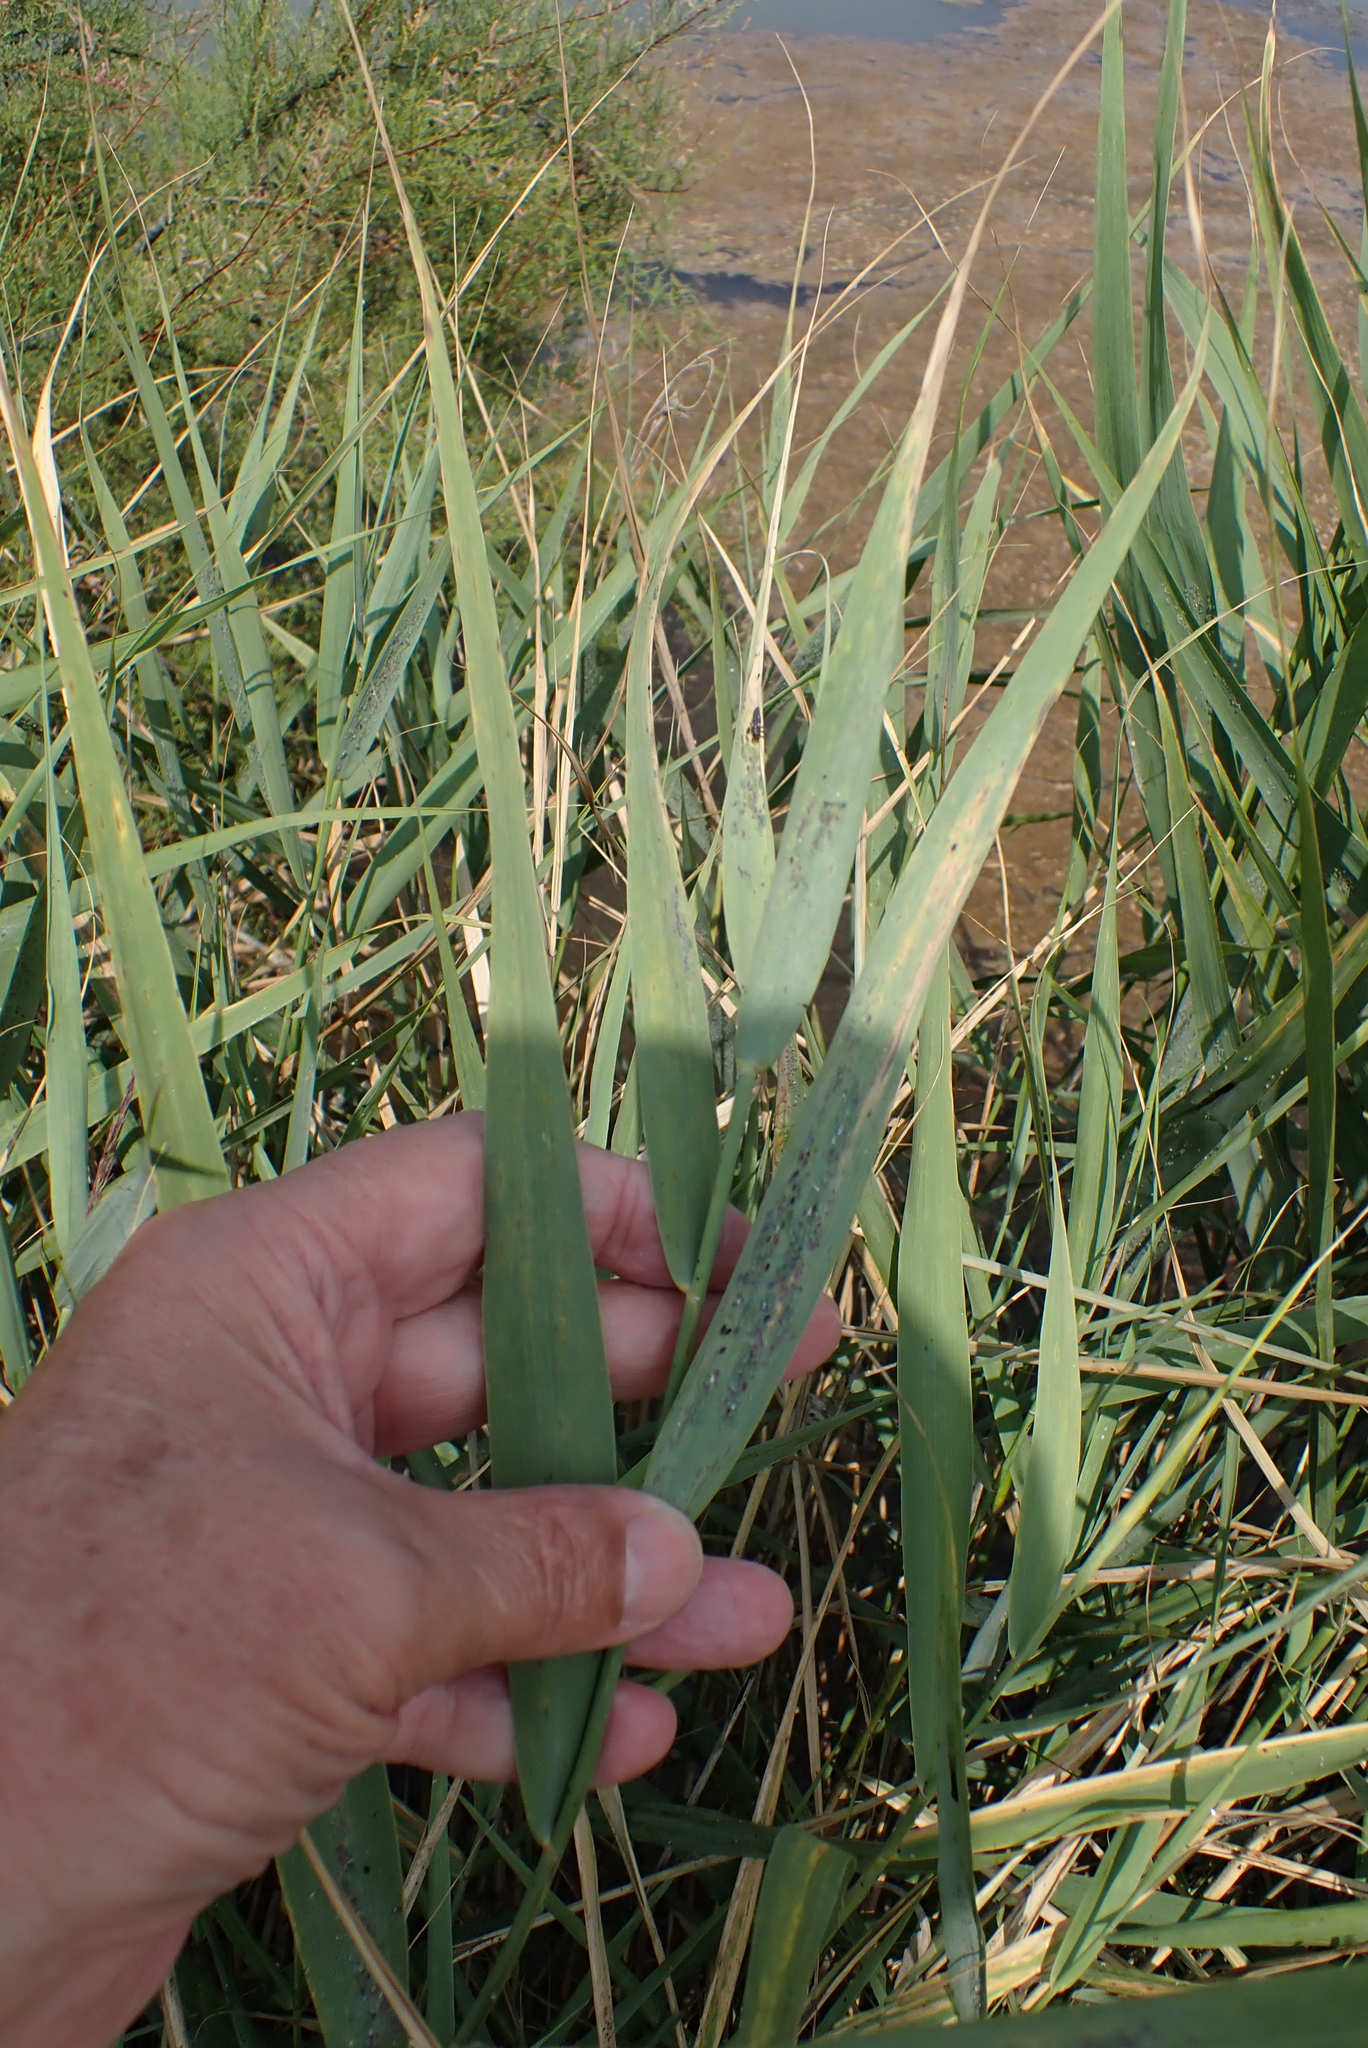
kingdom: Plantae
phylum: Tracheophyta
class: Liliopsida
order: Poales
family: Poaceae
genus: Phragmites
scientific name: Phragmites australis
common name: Common reed
